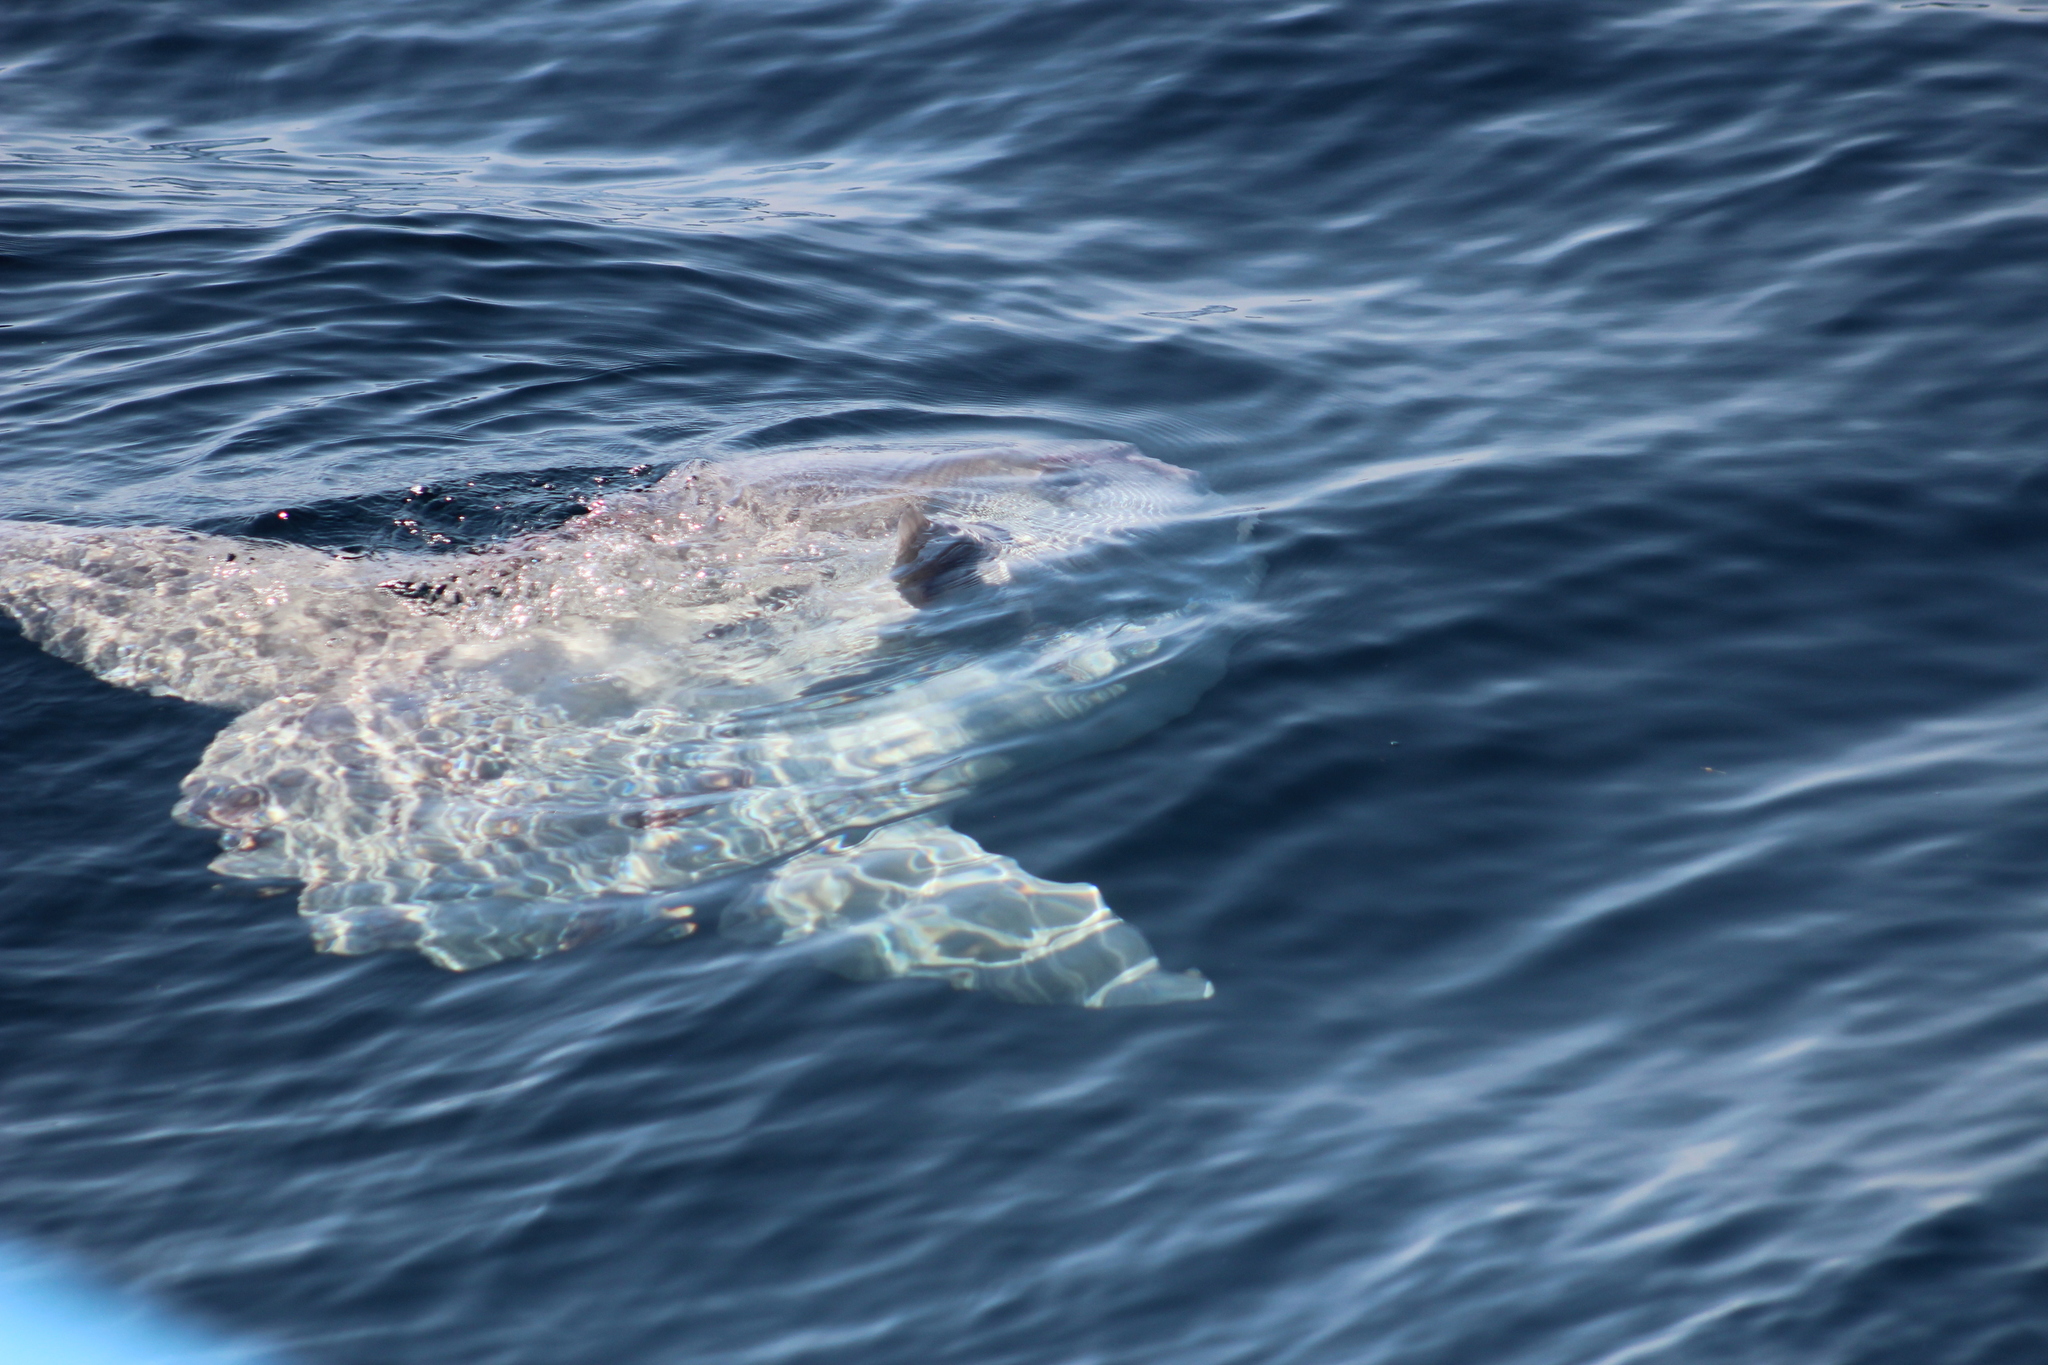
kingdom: Animalia
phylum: Chordata
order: Tetraodontiformes
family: Molidae
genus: Mola
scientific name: Mola mola
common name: Ocean sunfish
